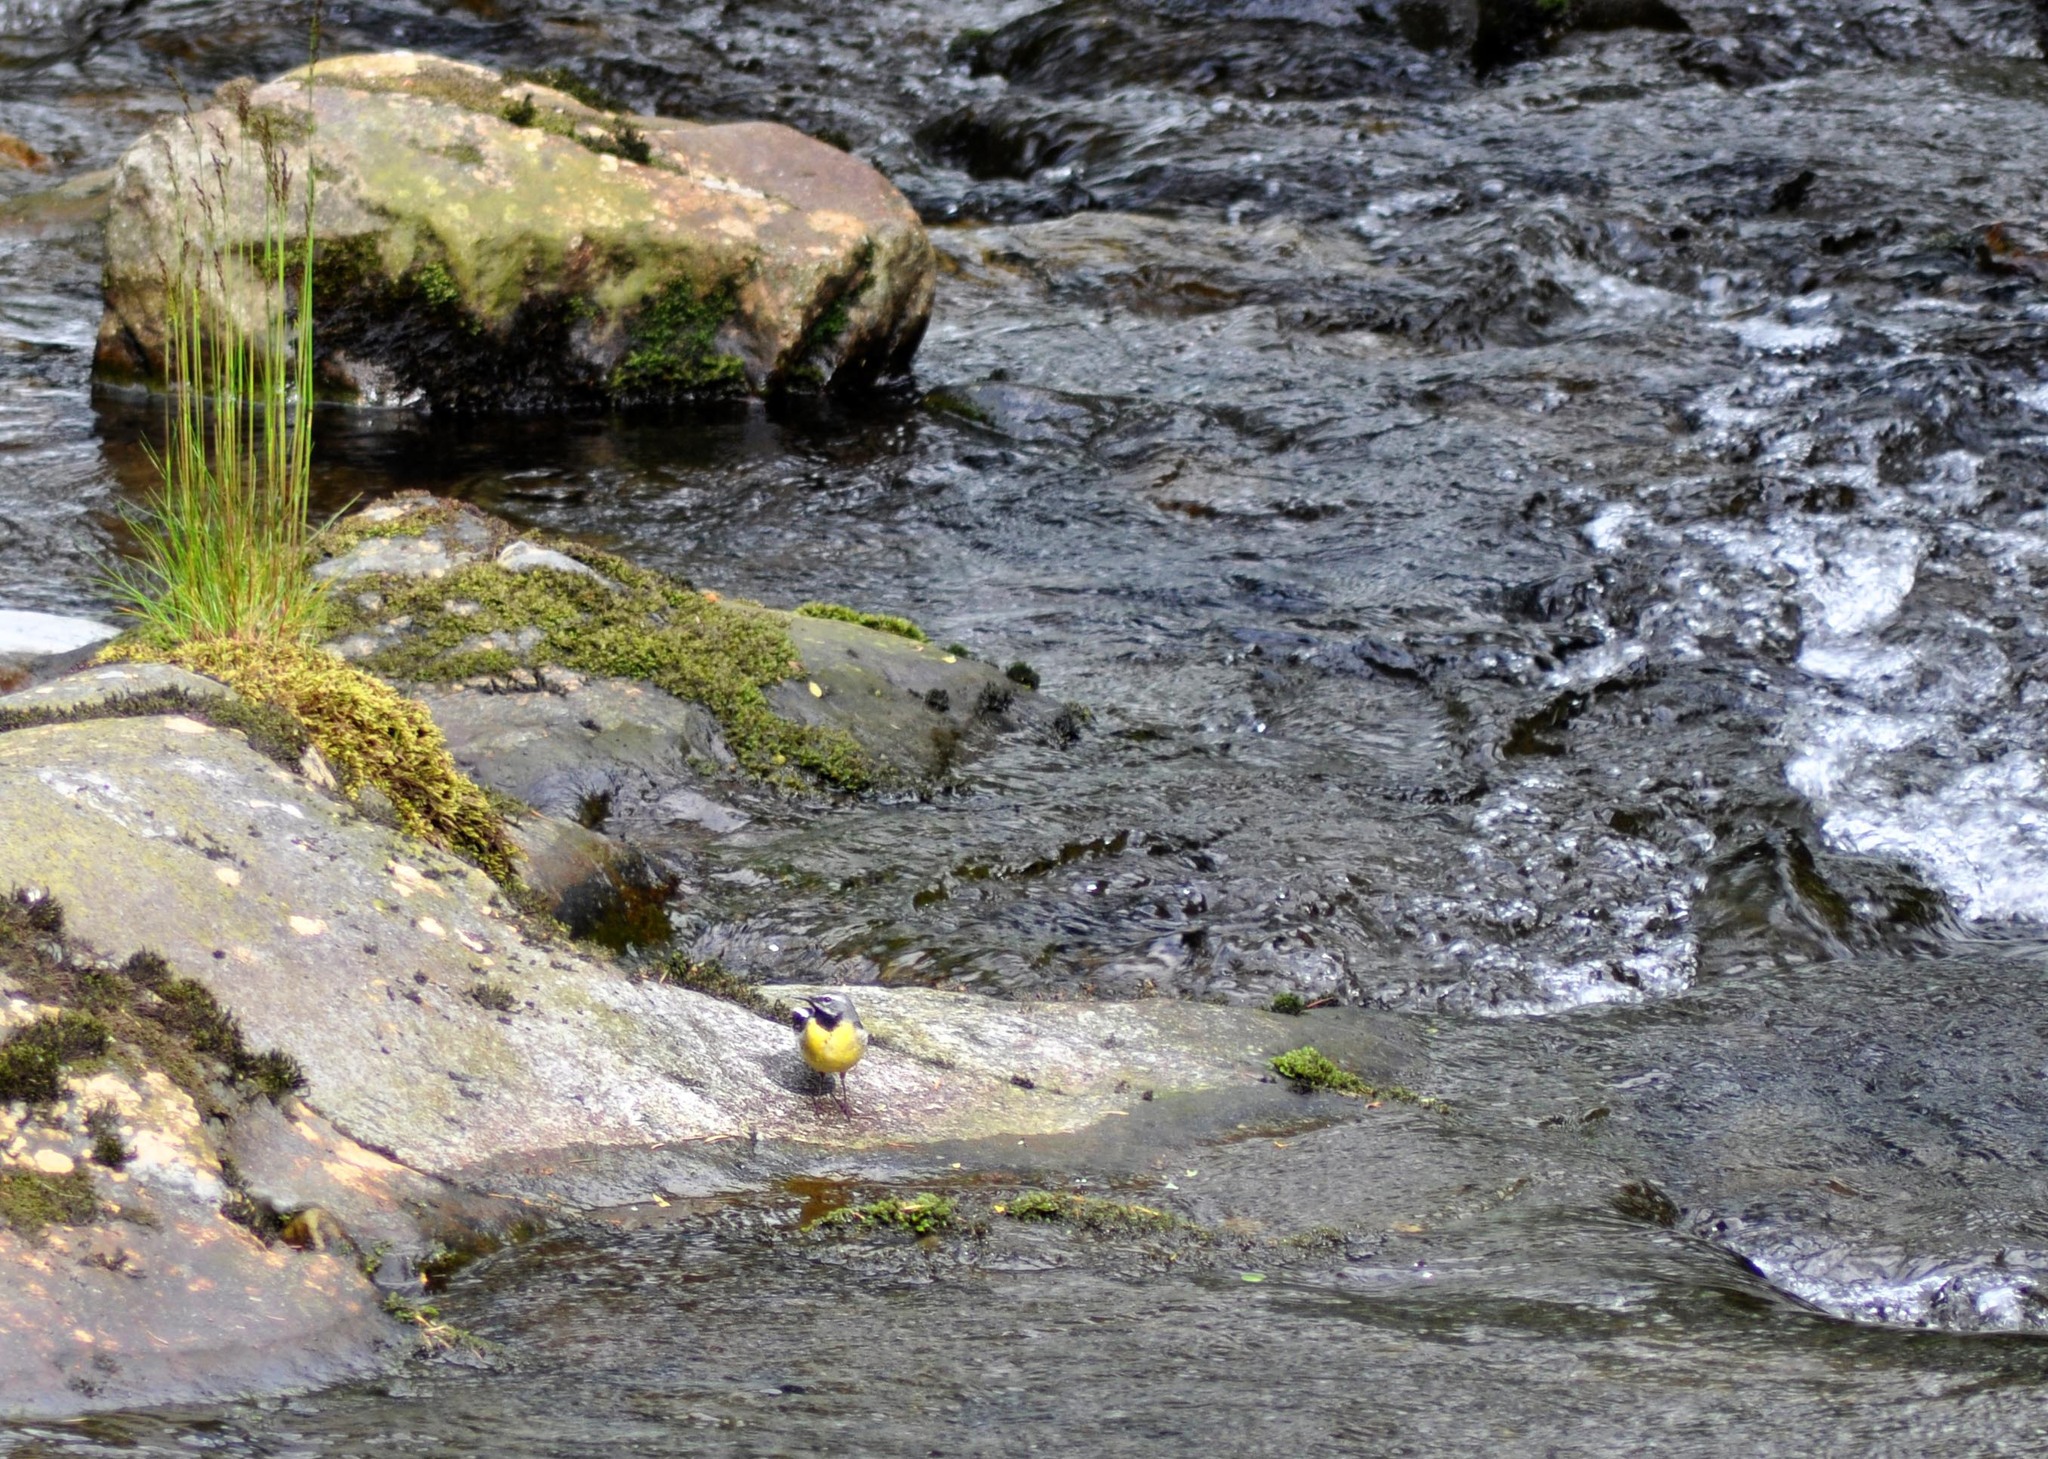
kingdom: Animalia
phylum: Chordata
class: Aves
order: Passeriformes
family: Motacillidae
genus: Motacilla
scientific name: Motacilla cinerea
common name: Grey wagtail
